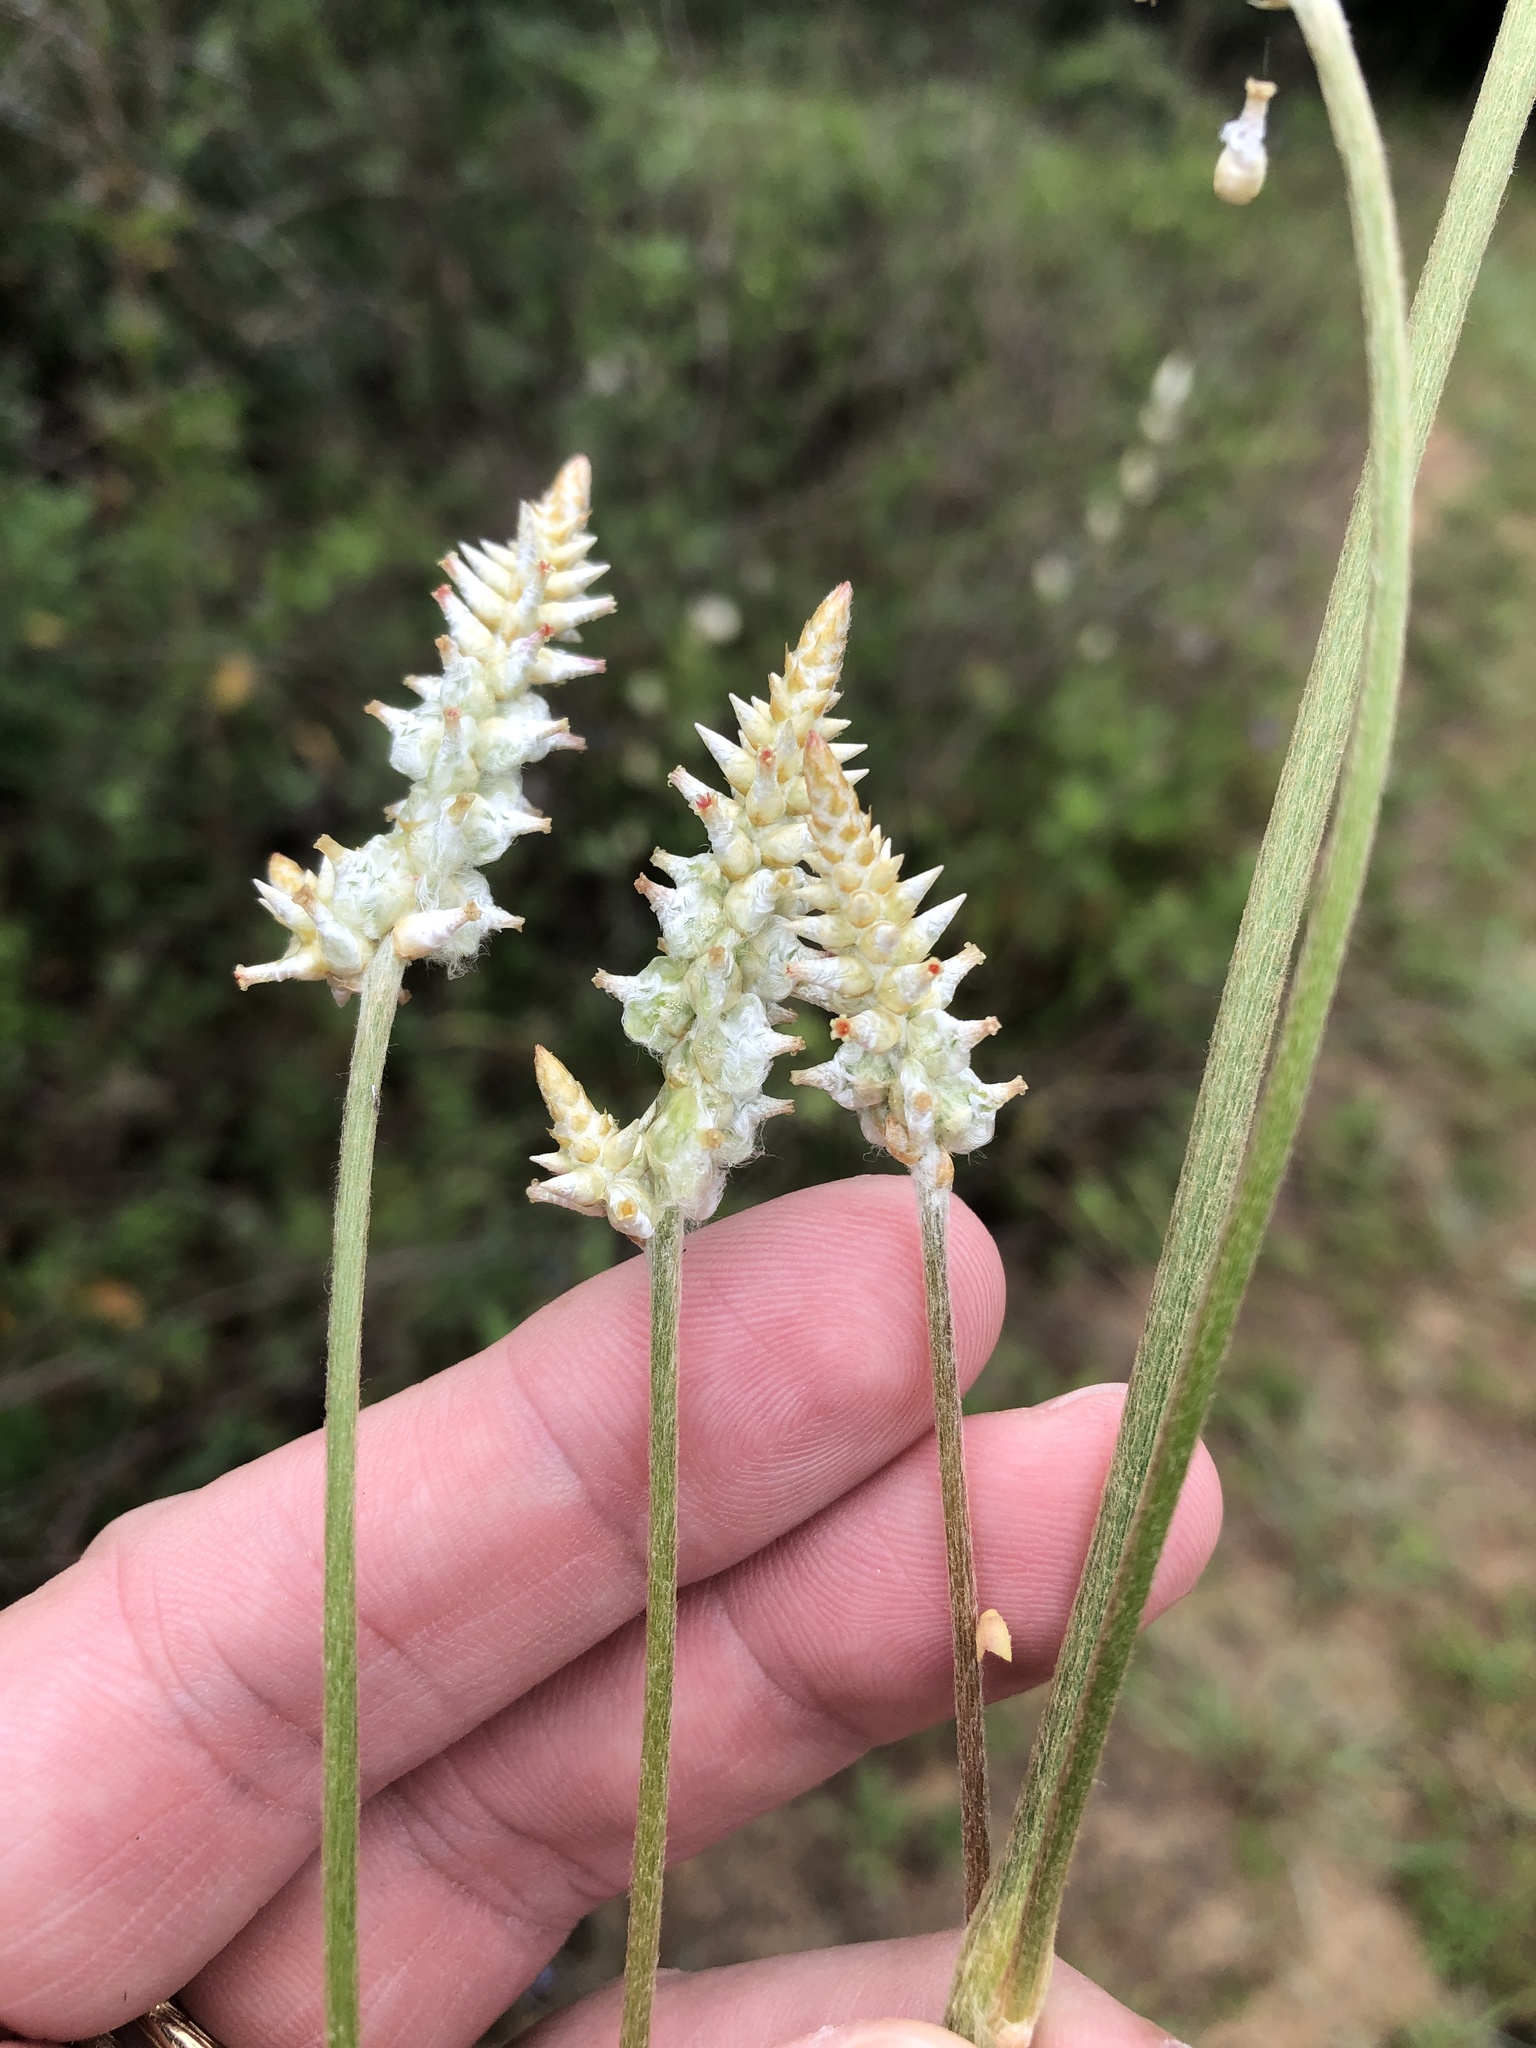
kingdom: Plantae
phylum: Tracheophyta
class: Magnoliopsida
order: Caryophyllales
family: Amaranthaceae
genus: Froelichia
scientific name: Froelichia floridana
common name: Florida snake-cotton
